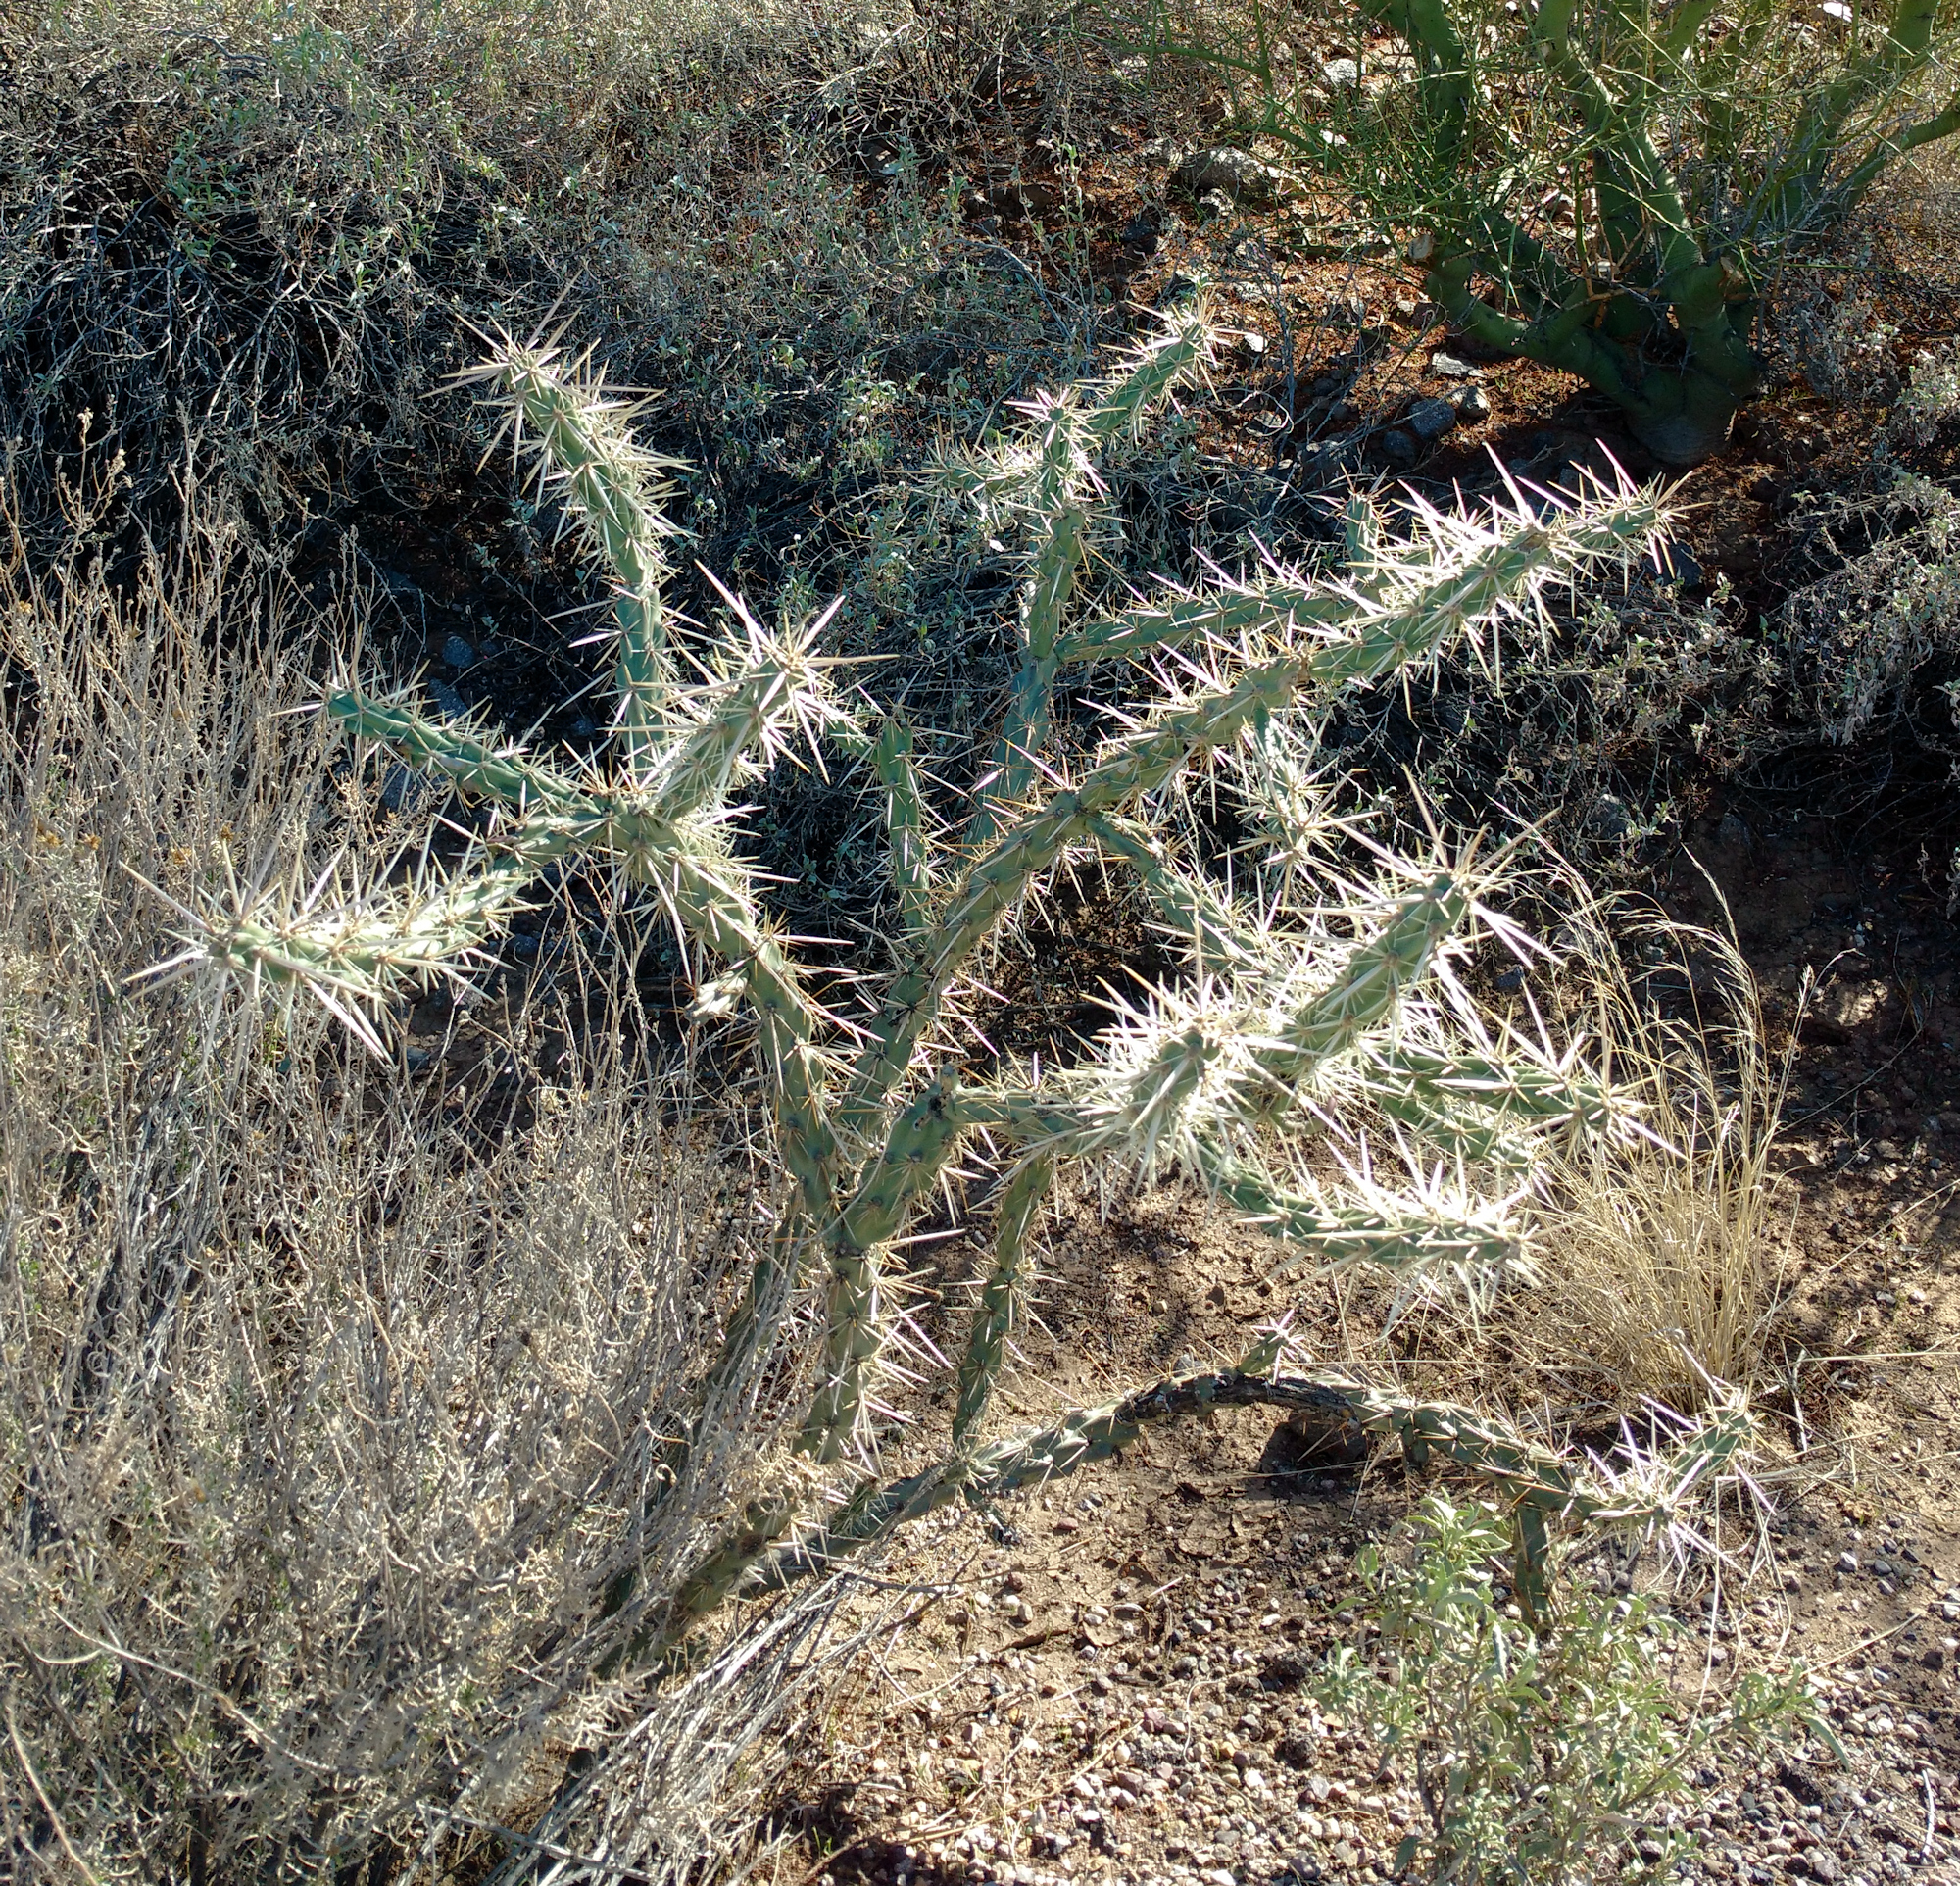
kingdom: Plantae
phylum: Tracheophyta
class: Magnoliopsida
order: Caryophyllales
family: Cactaceae
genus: Cylindropuntia
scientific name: Cylindropuntia acanthocarpa
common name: Buckhorn cholla
